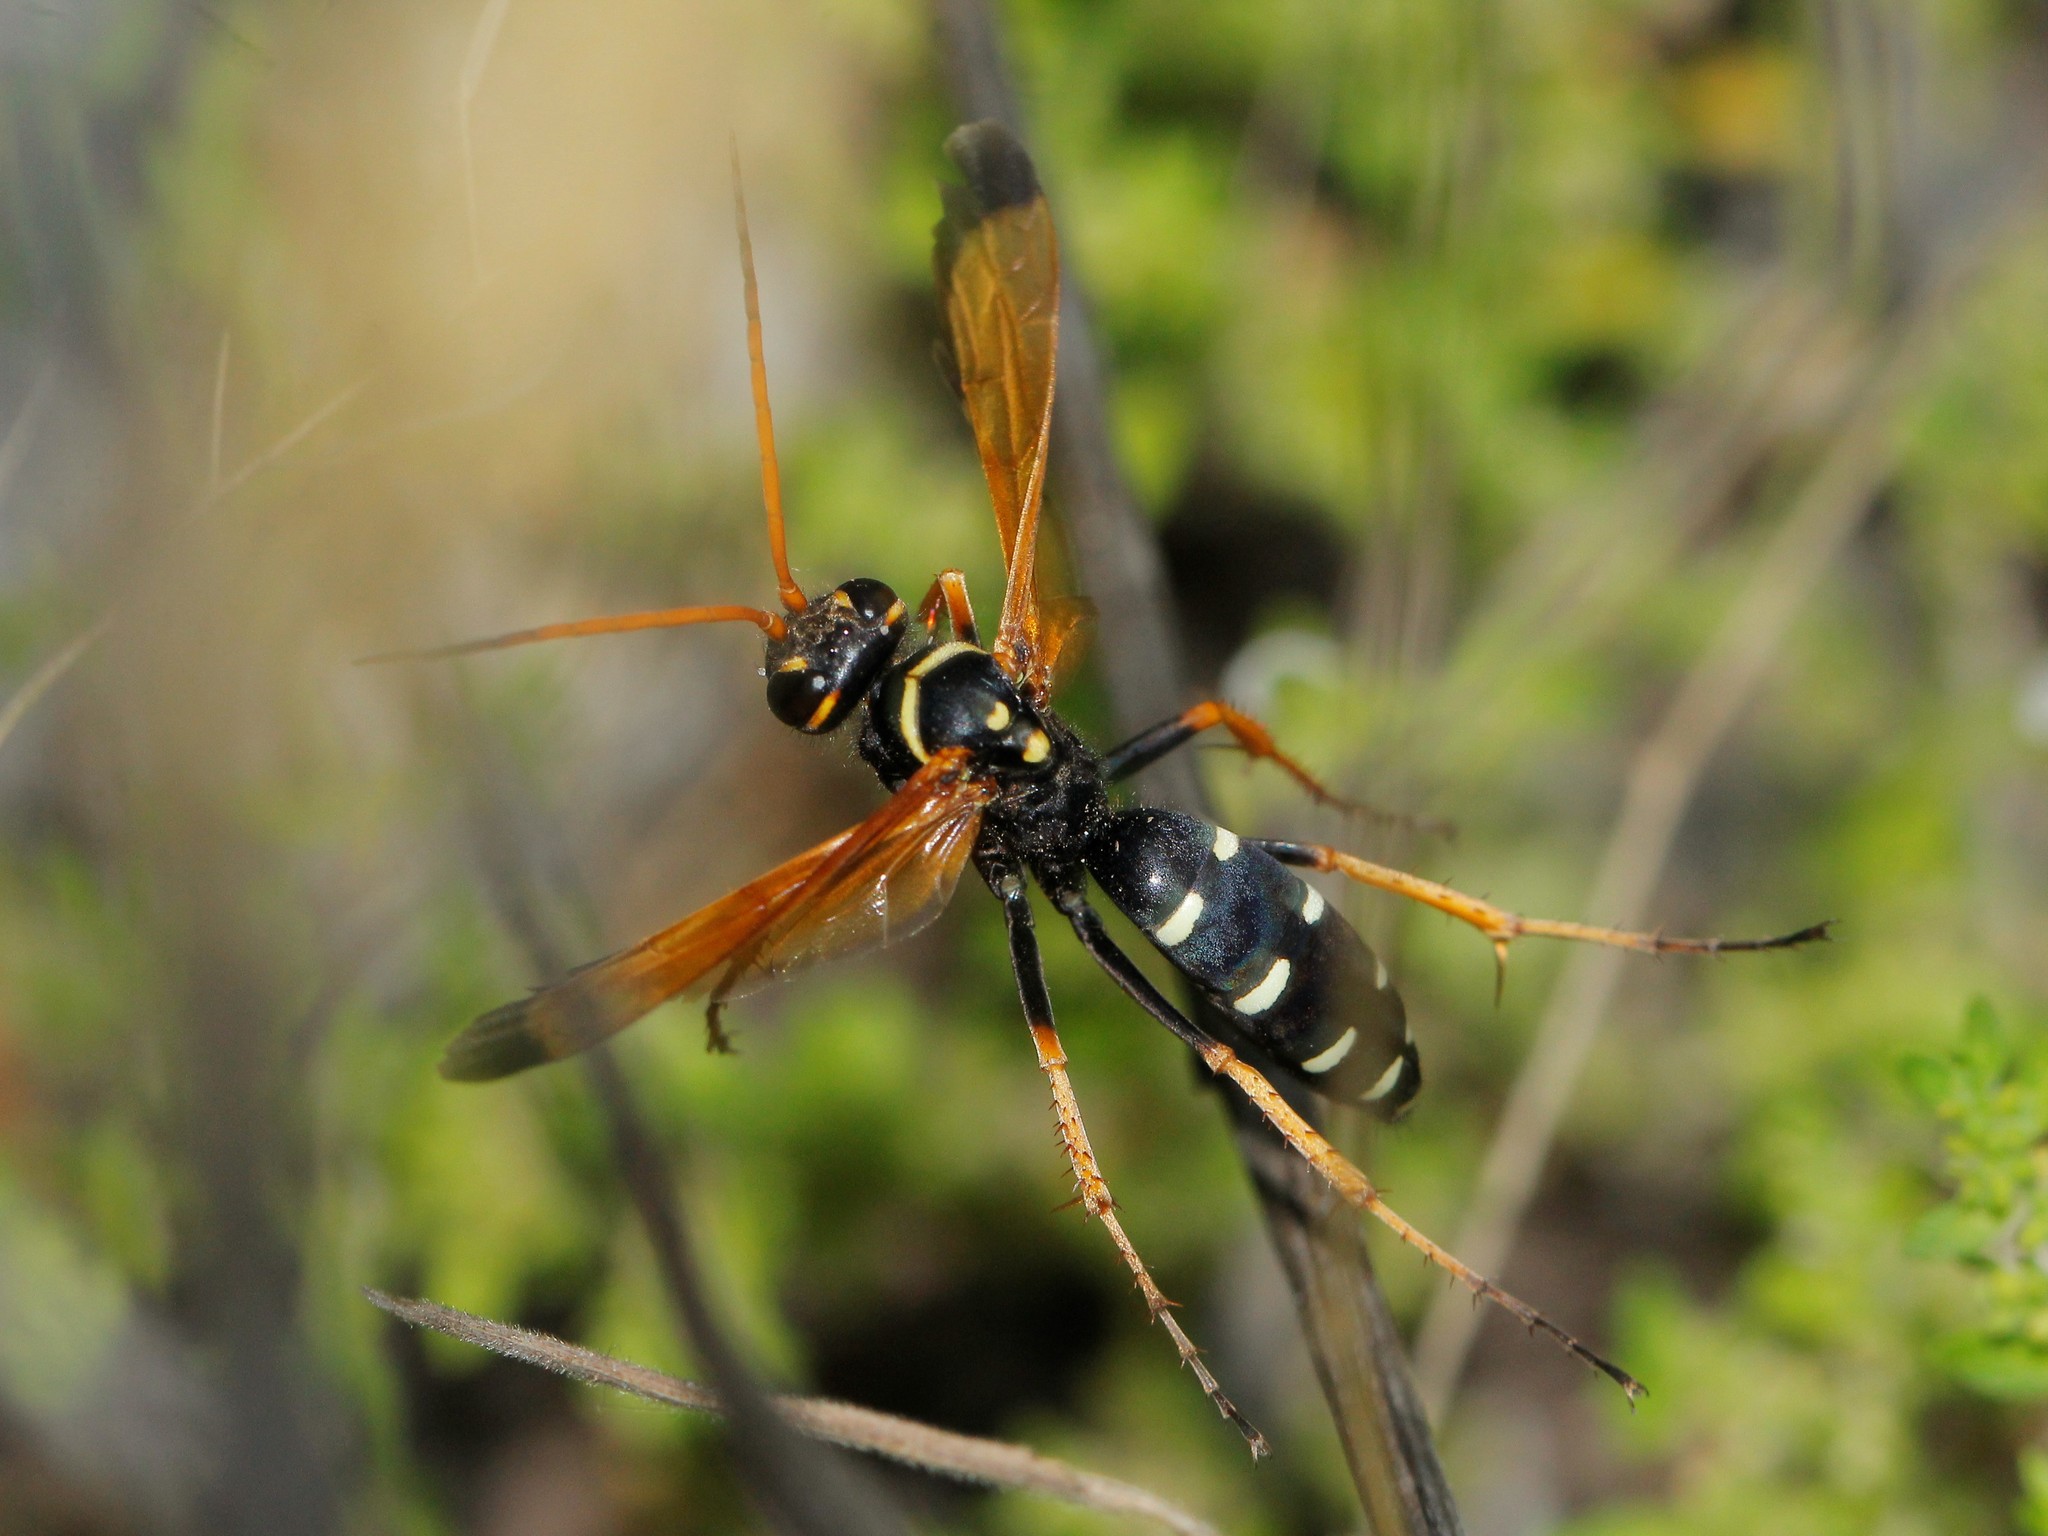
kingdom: Animalia
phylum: Arthropoda
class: Insecta
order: Hymenoptera
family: Pompilidae
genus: Parabatozonus
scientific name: Parabatozonus lacerticida
